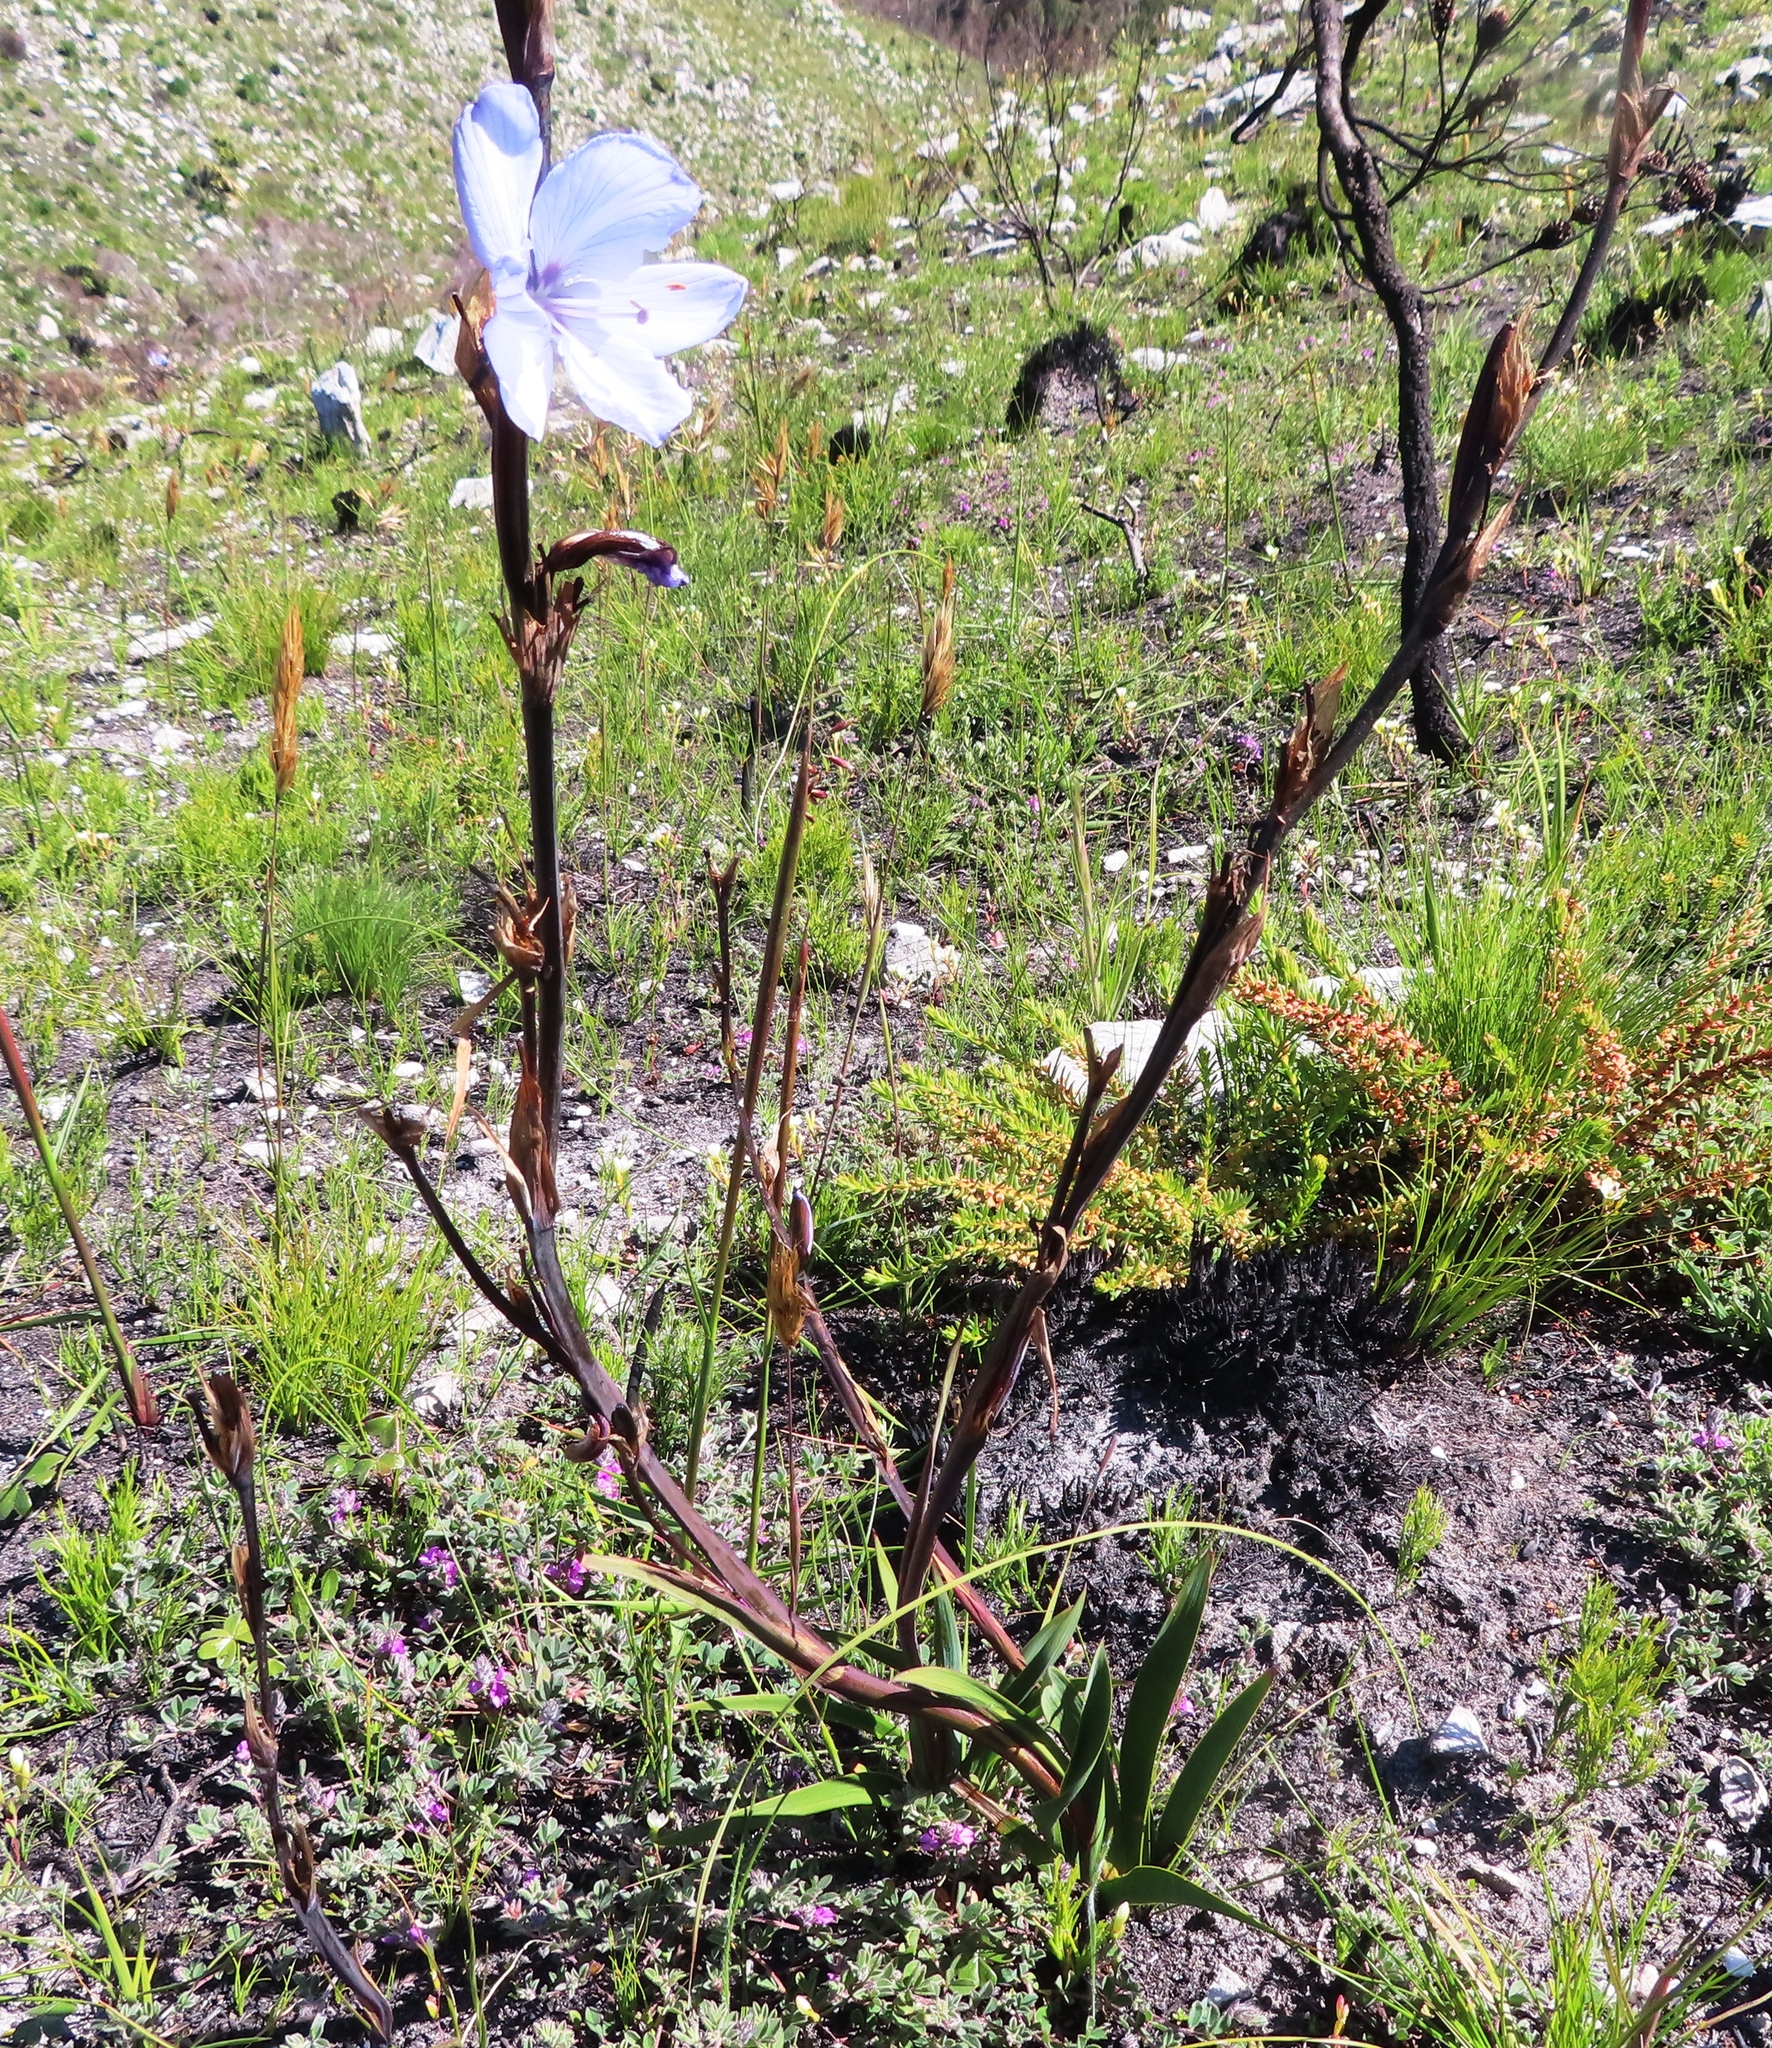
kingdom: Plantae
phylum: Tracheophyta
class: Liliopsida
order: Asparagales
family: Iridaceae
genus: Aristea
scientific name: Aristea spiralis
